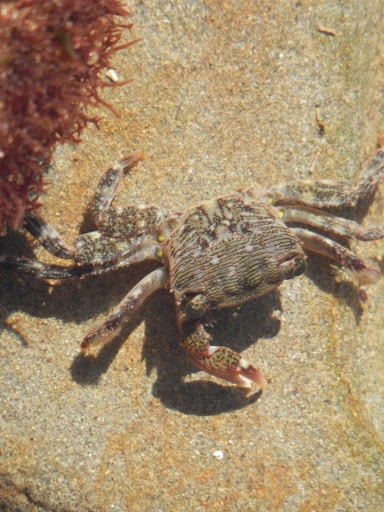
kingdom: Animalia
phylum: Arthropoda
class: Malacostraca
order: Decapoda
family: Grapsidae
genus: Pachygrapsus
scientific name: Pachygrapsus crassipes
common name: Striped shore crab
